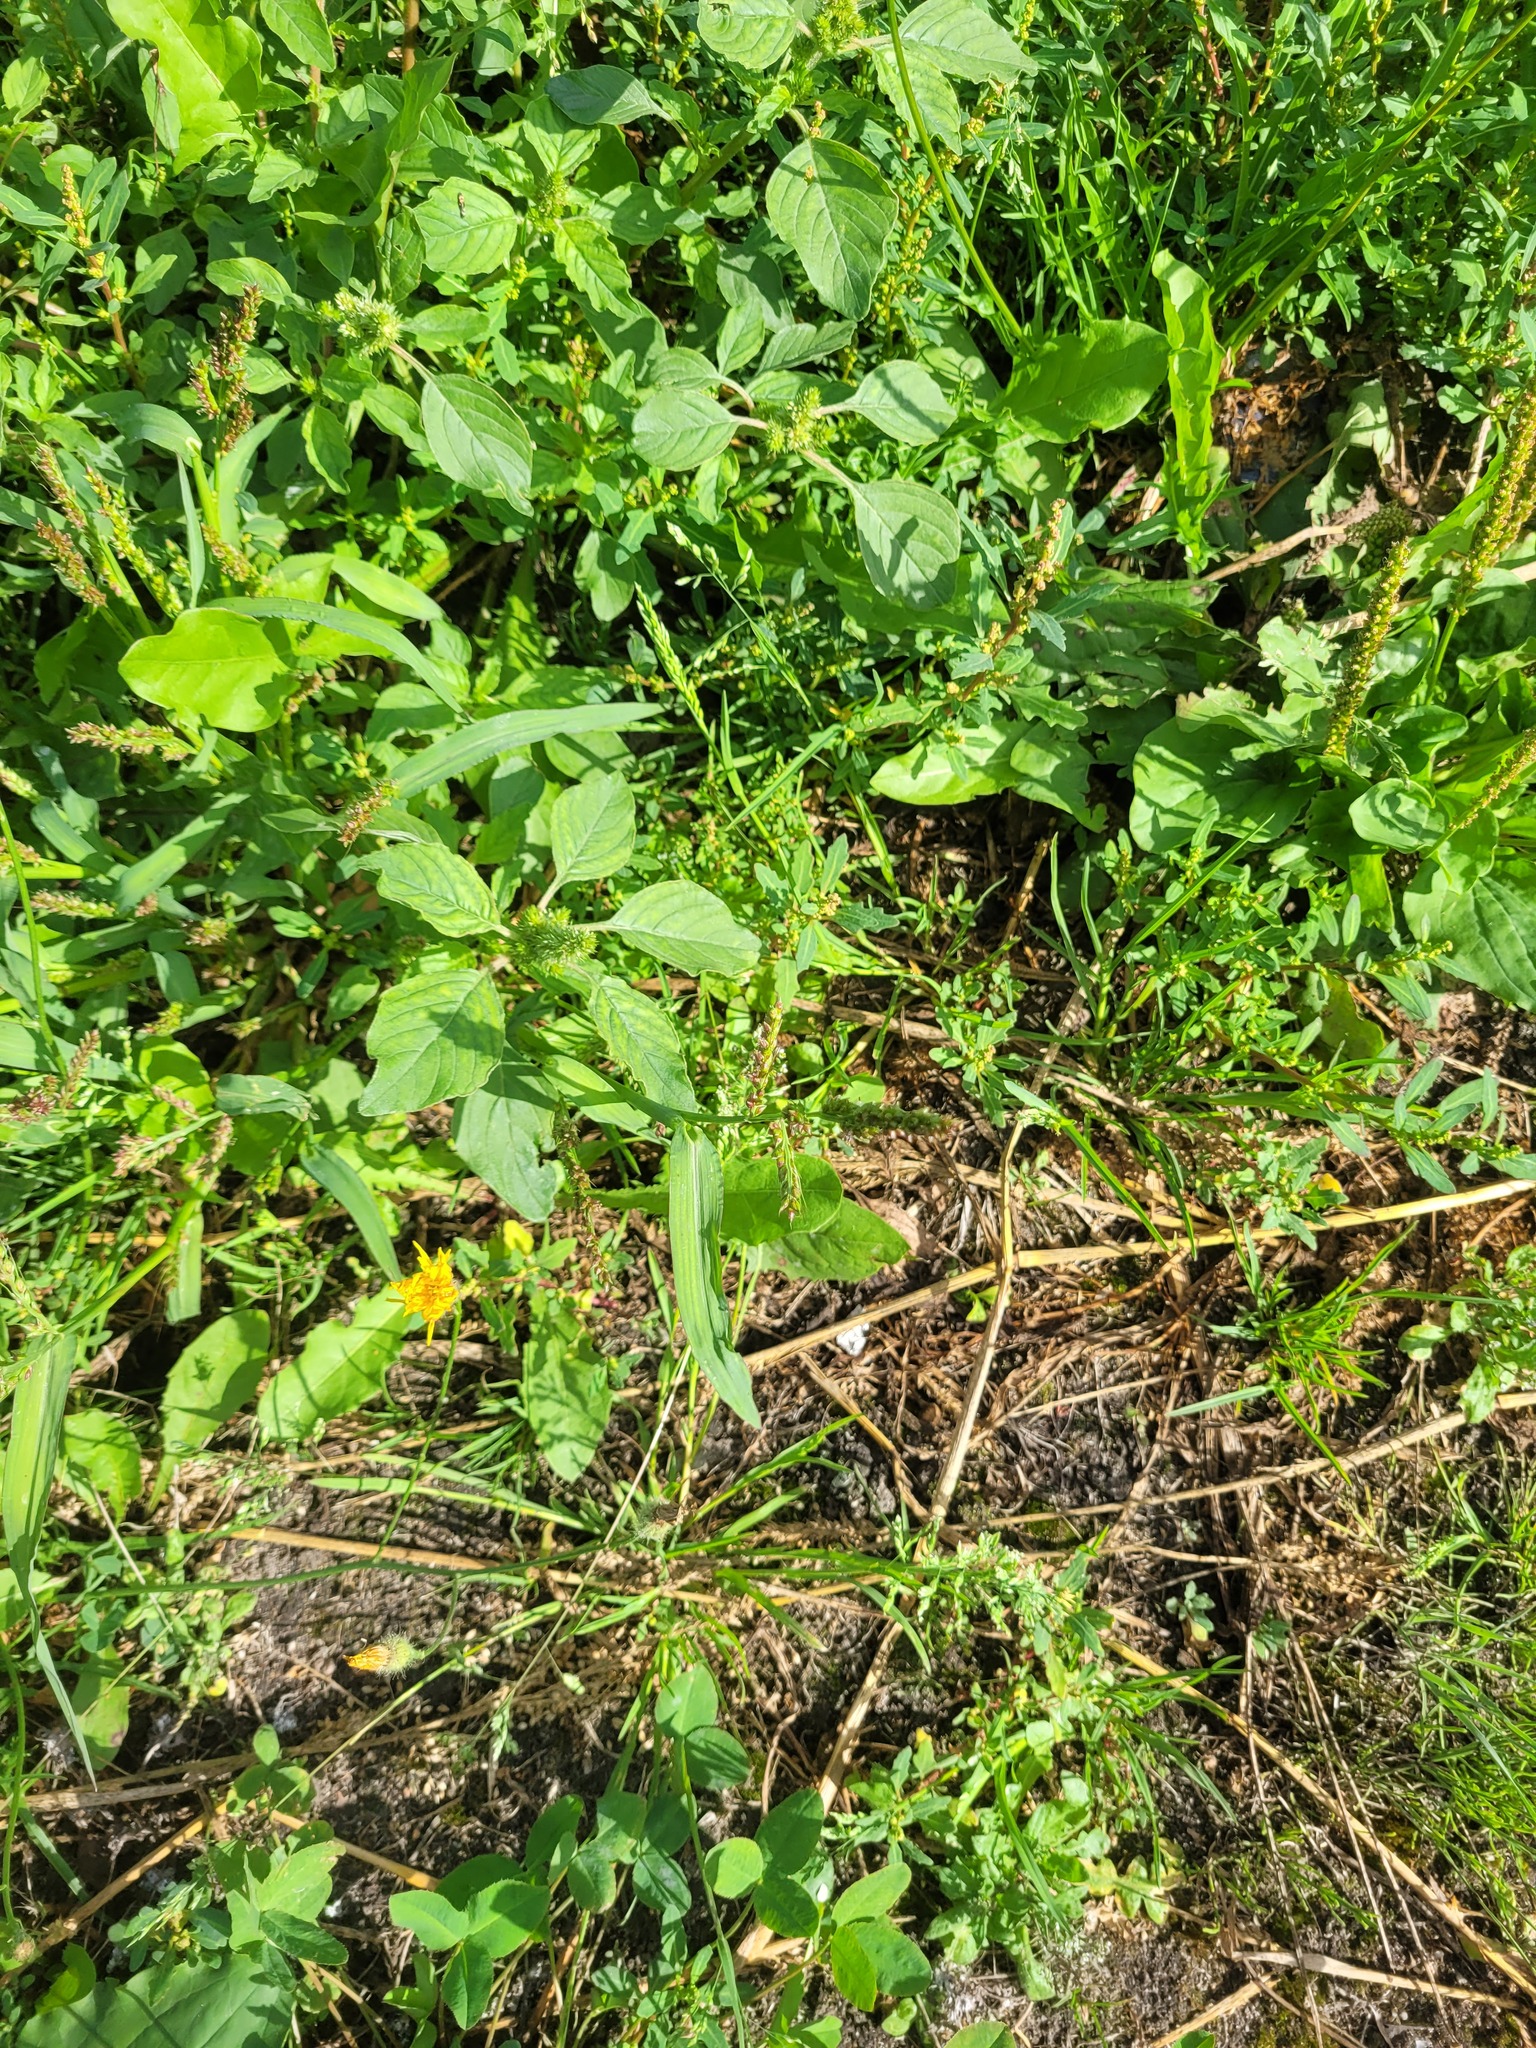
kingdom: Plantae
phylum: Tracheophyta
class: Liliopsida
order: Poales
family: Poaceae
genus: Echinochloa
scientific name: Echinochloa crus-galli
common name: Cockspur
